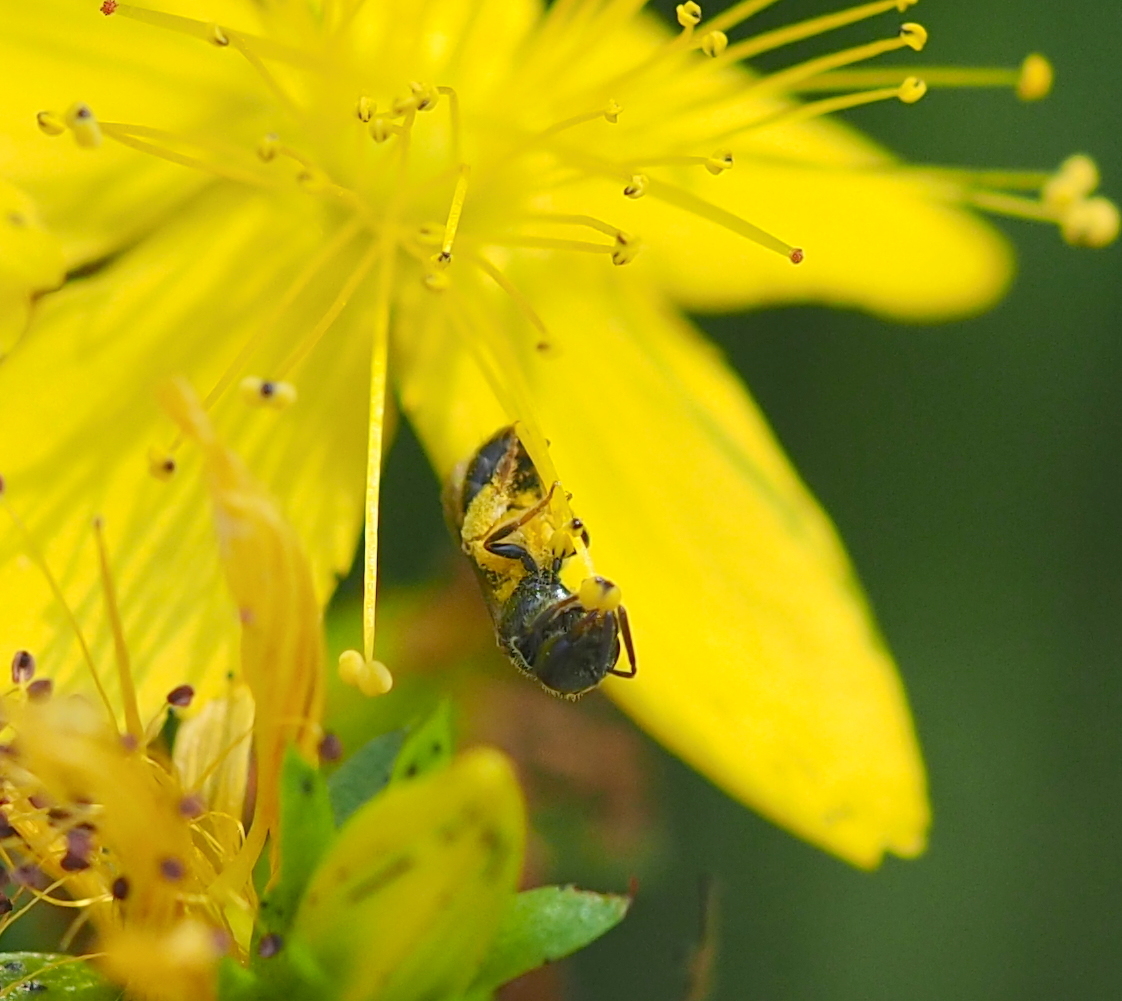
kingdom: Animalia
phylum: Arthropoda
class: Insecta
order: Hymenoptera
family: Halictidae
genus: Lasioglossum
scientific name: Lasioglossum politum
